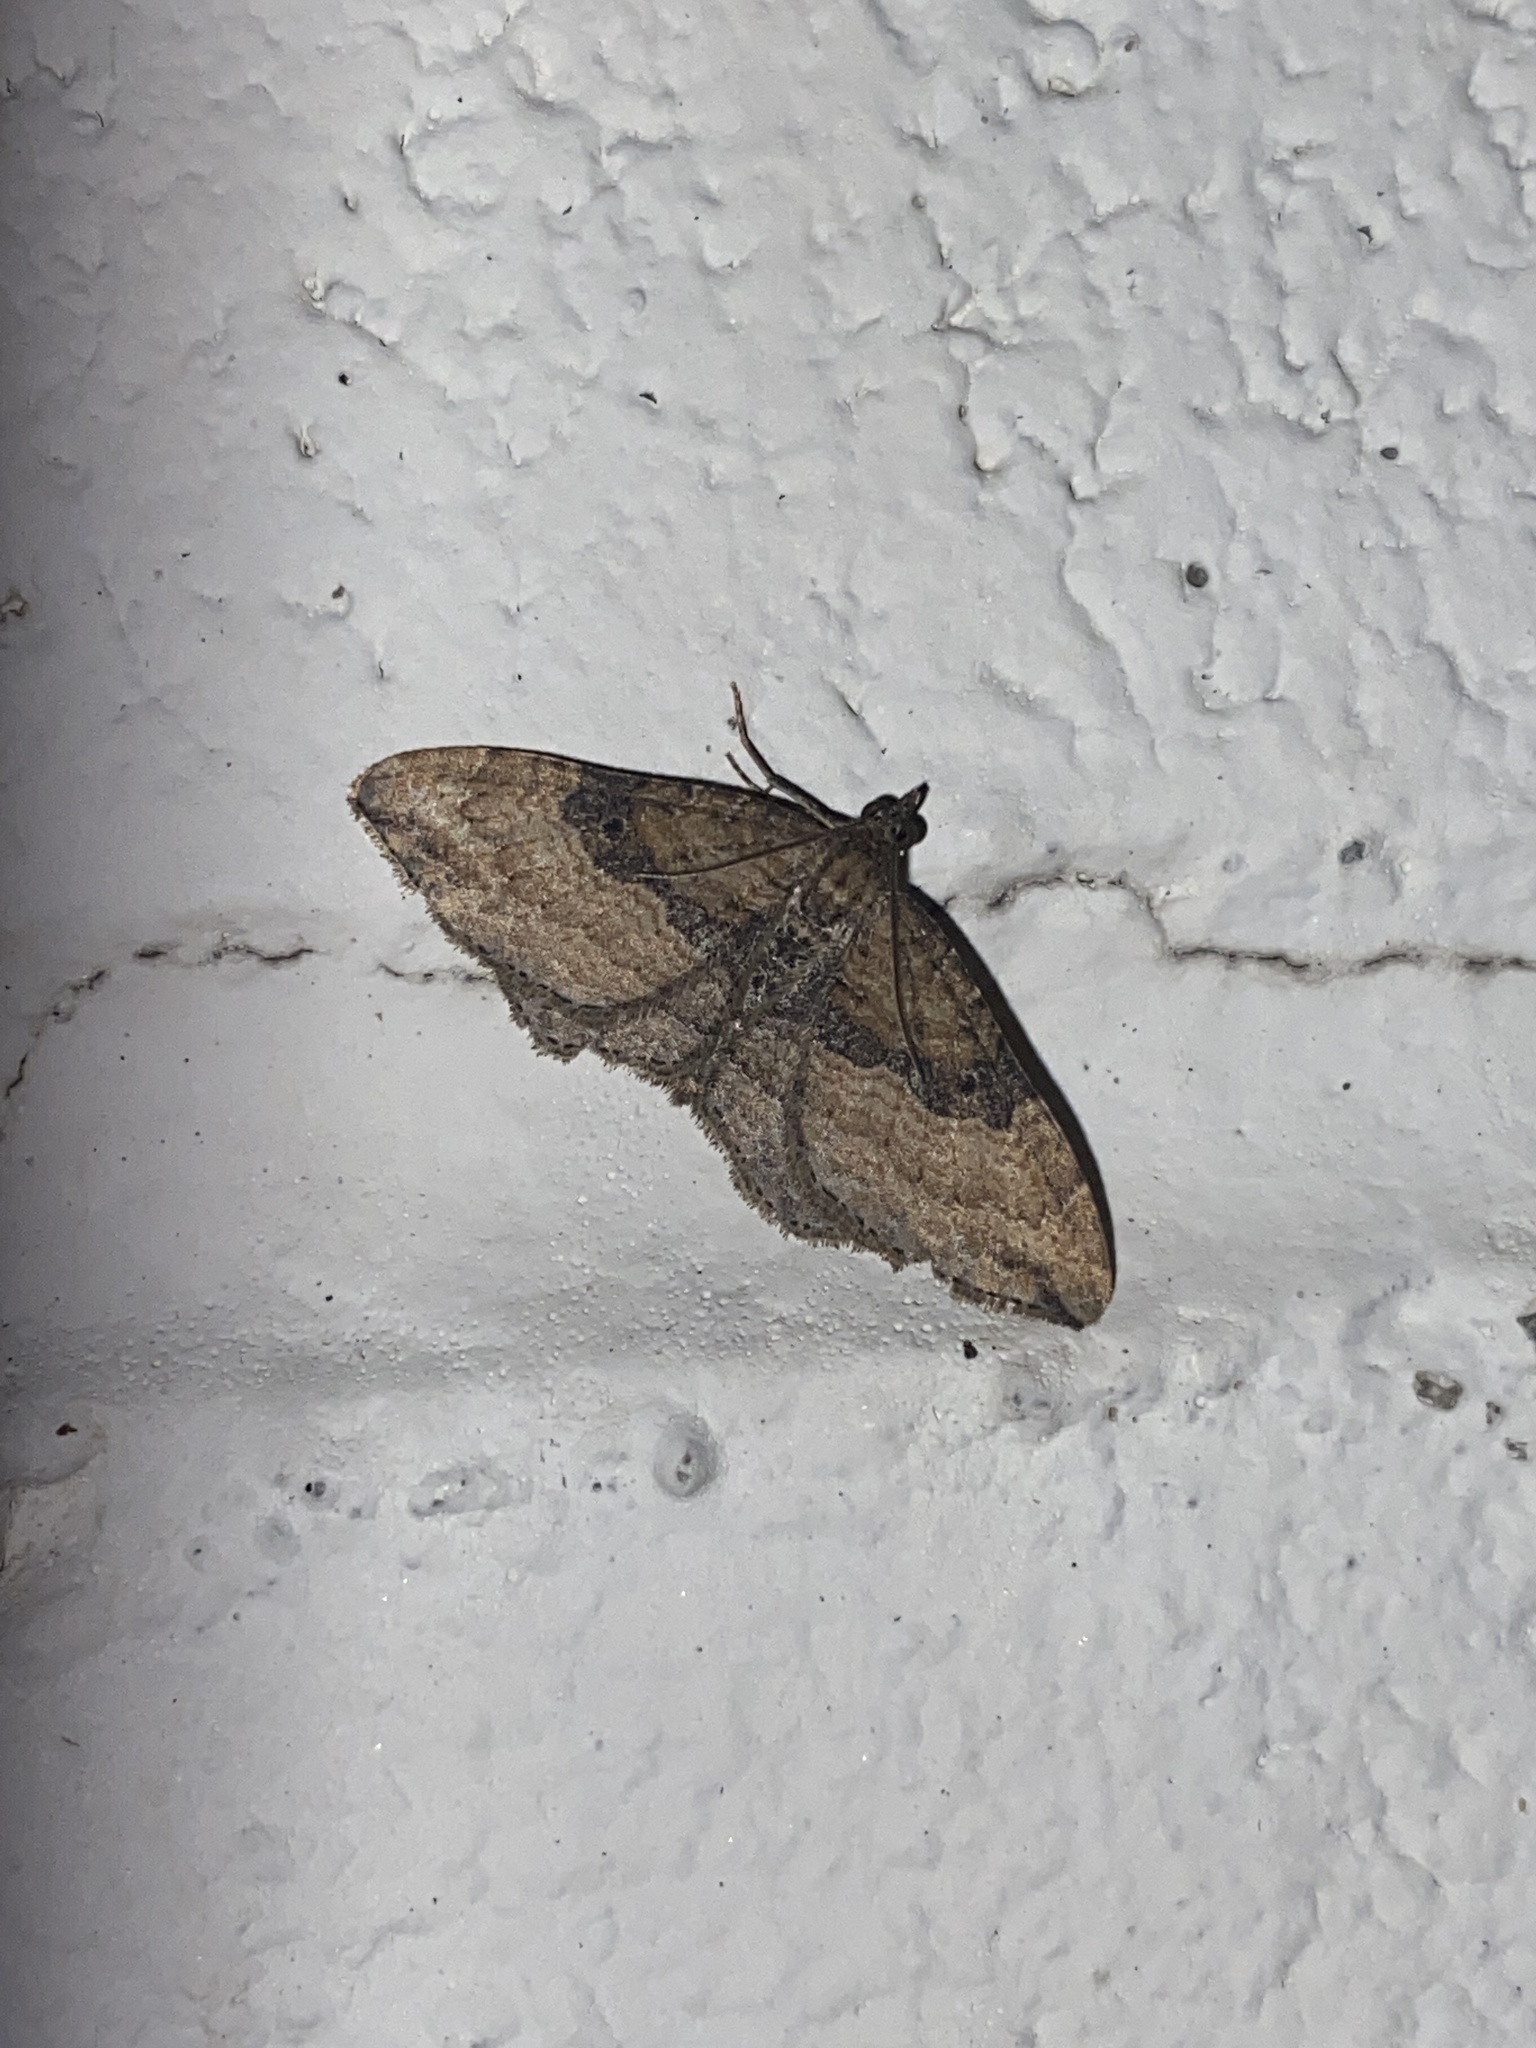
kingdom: Animalia
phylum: Arthropoda
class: Insecta
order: Lepidoptera
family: Geometridae
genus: Orthonama
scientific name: Orthonama obstipata
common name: The gem
